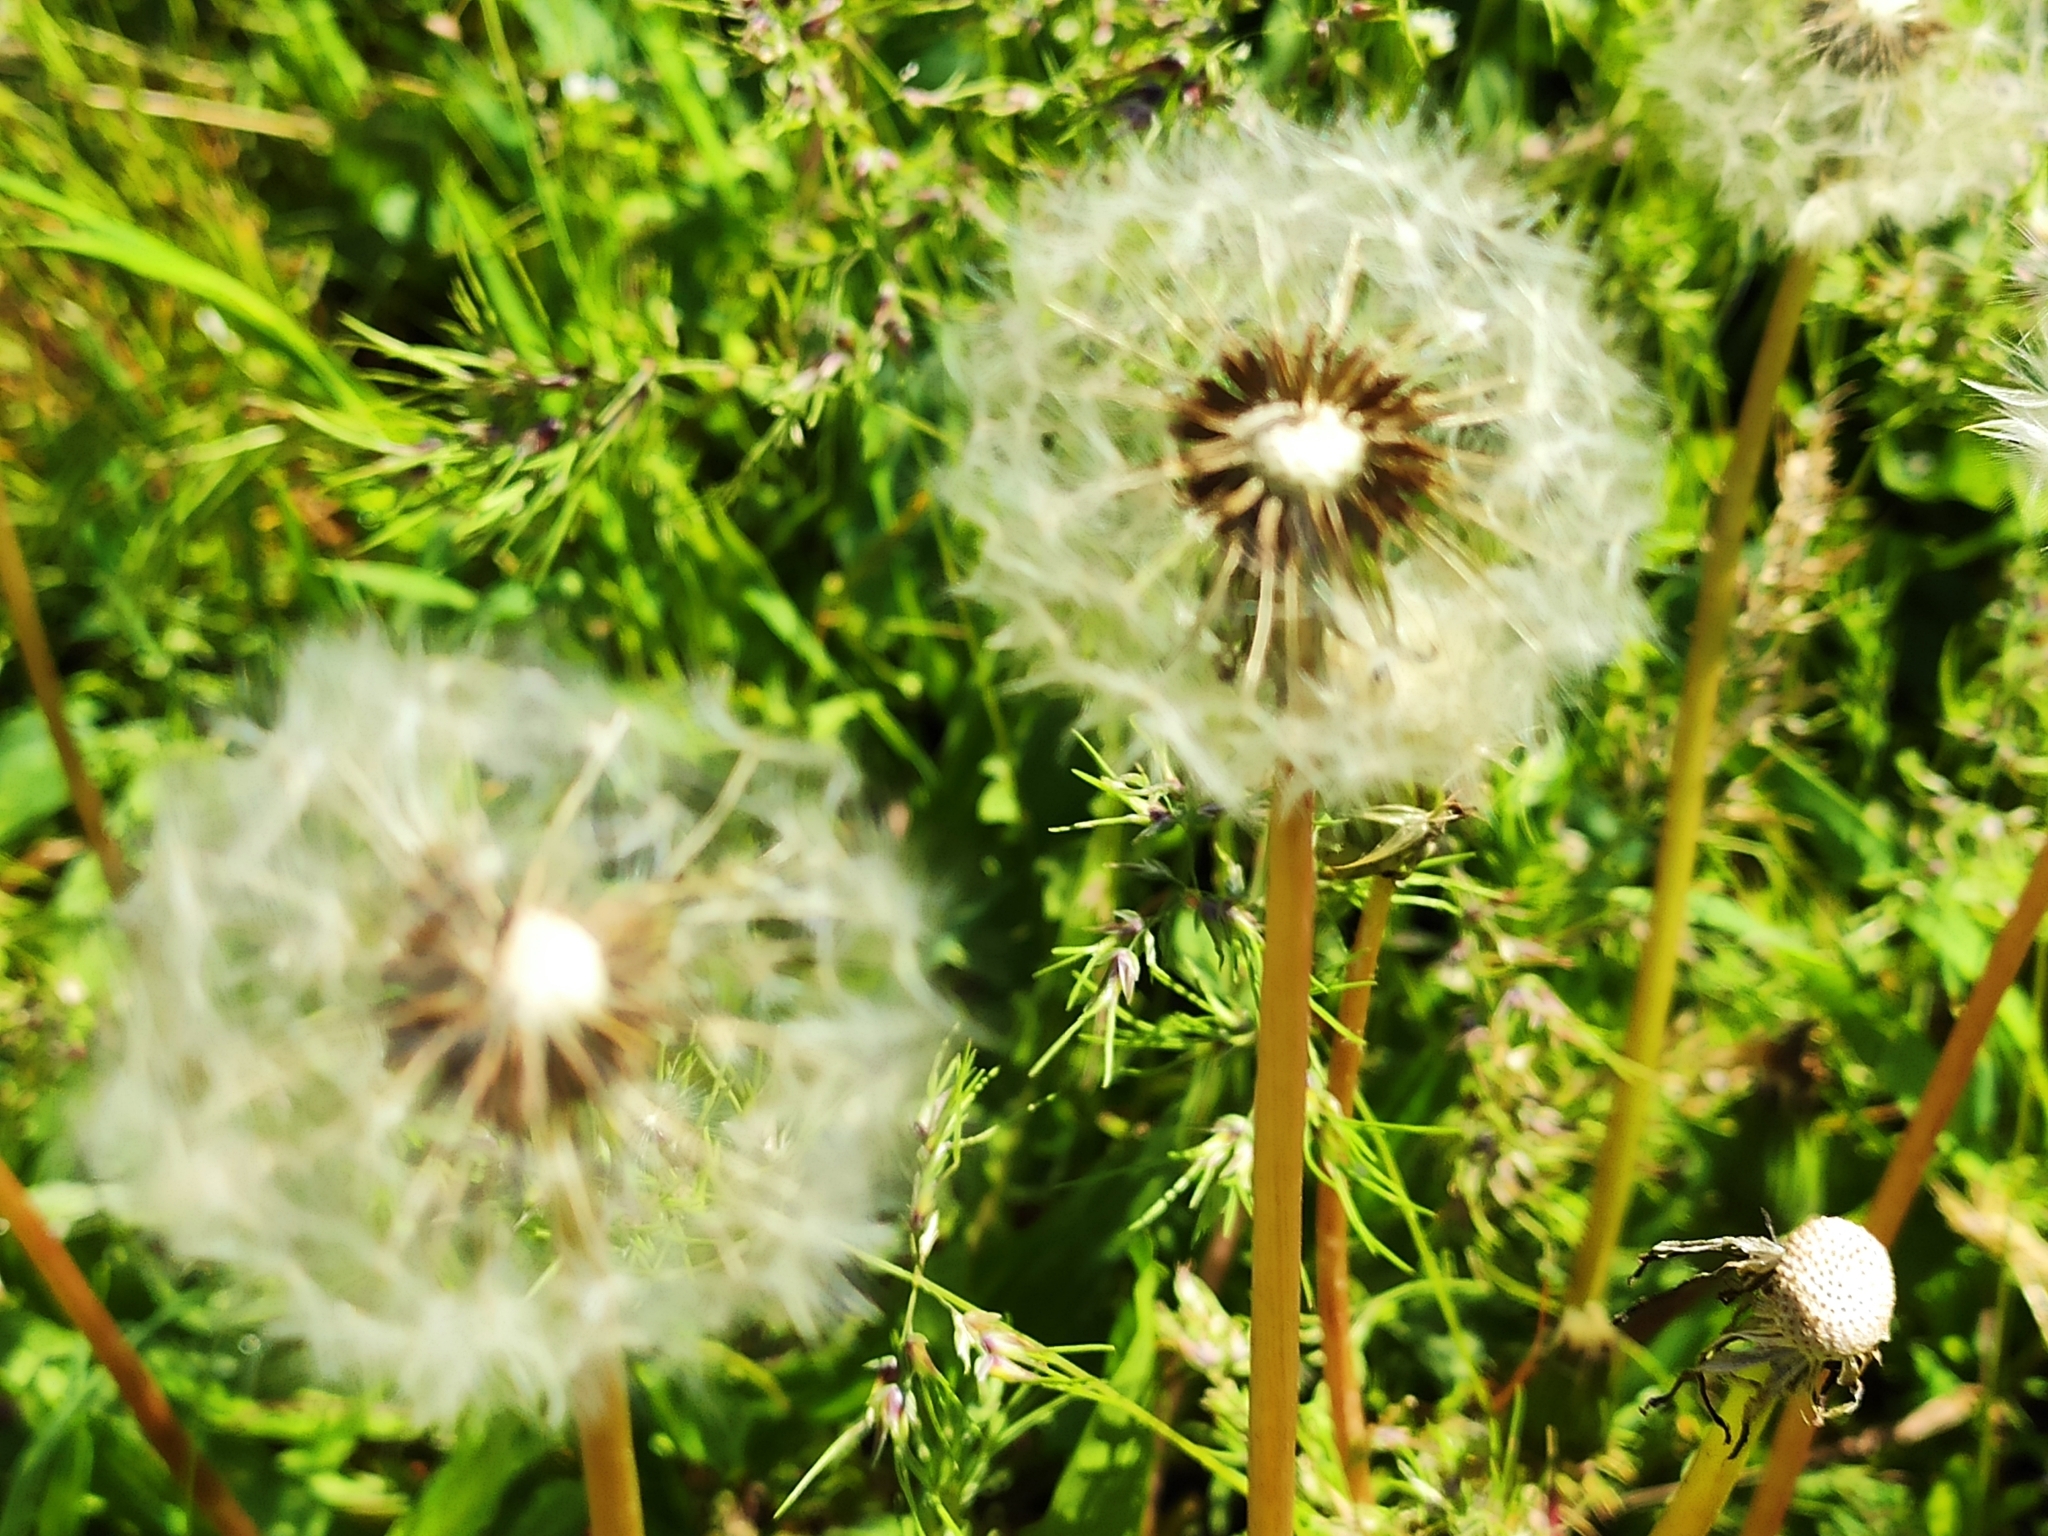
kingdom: Plantae
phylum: Tracheophyta
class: Magnoliopsida
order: Asterales
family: Asteraceae
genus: Taraxacum
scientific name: Taraxacum officinale
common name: Common dandelion
